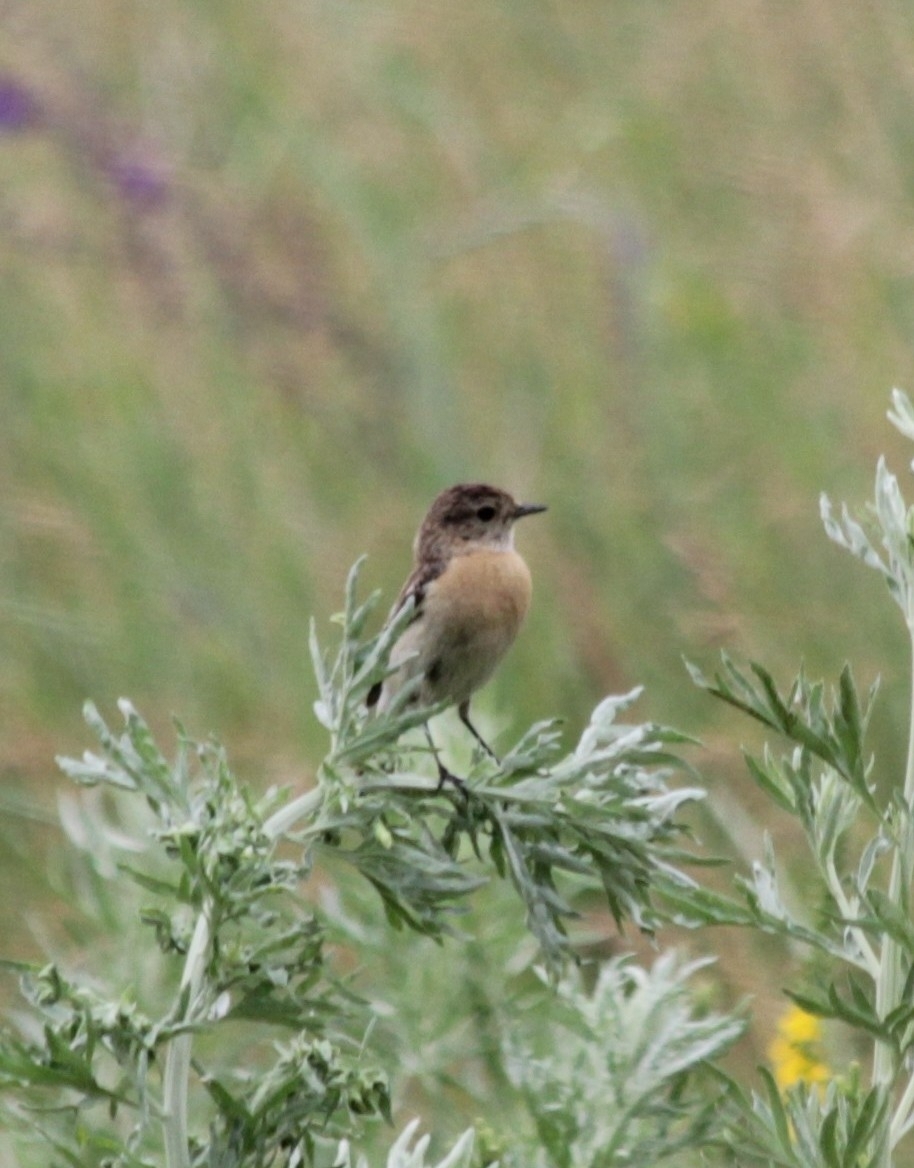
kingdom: Animalia
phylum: Chordata
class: Aves
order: Passeriformes
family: Muscicapidae
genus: Saxicola
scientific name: Saxicola maurus
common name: Siberian stonechat
